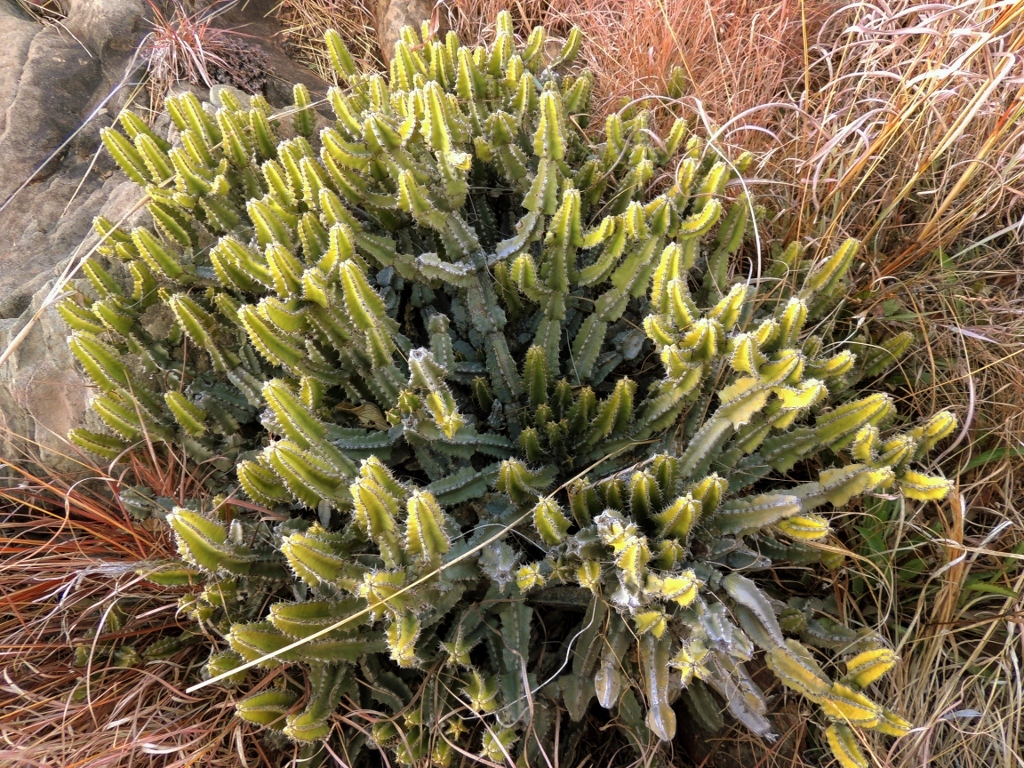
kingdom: Plantae
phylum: Tracheophyta
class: Magnoliopsida
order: Malpighiales
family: Euphorbiaceae
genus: Euphorbia
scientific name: Euphorbia memoralis
